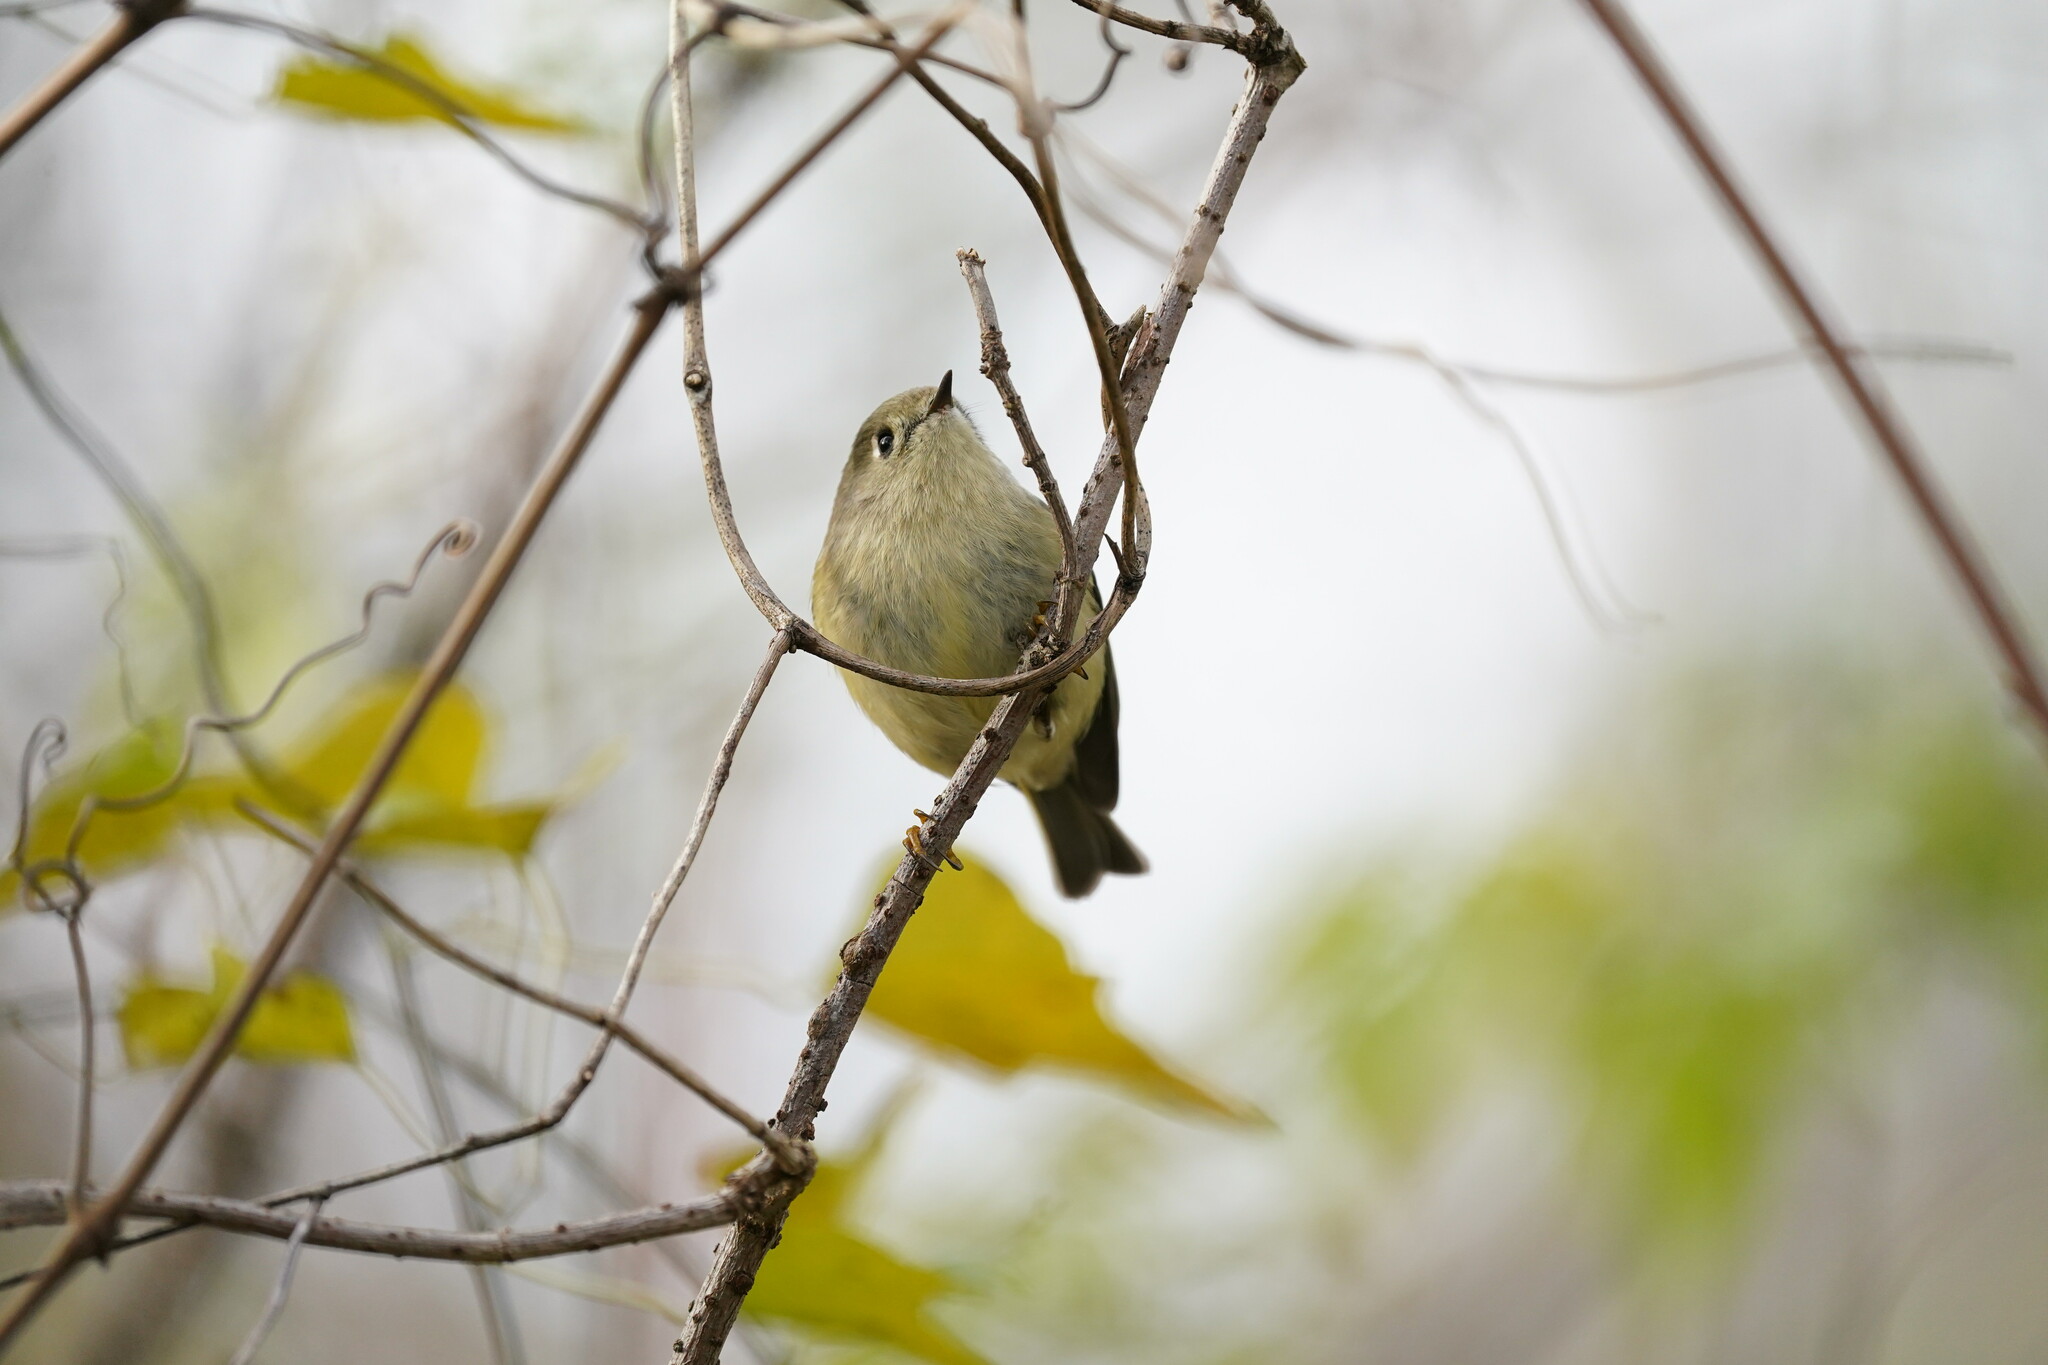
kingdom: Animalia
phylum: Chordata
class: Aves
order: Passeriformes
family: Regulidae
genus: Regulus
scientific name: Regulus calendula
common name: Ruby-crowned kinglet
